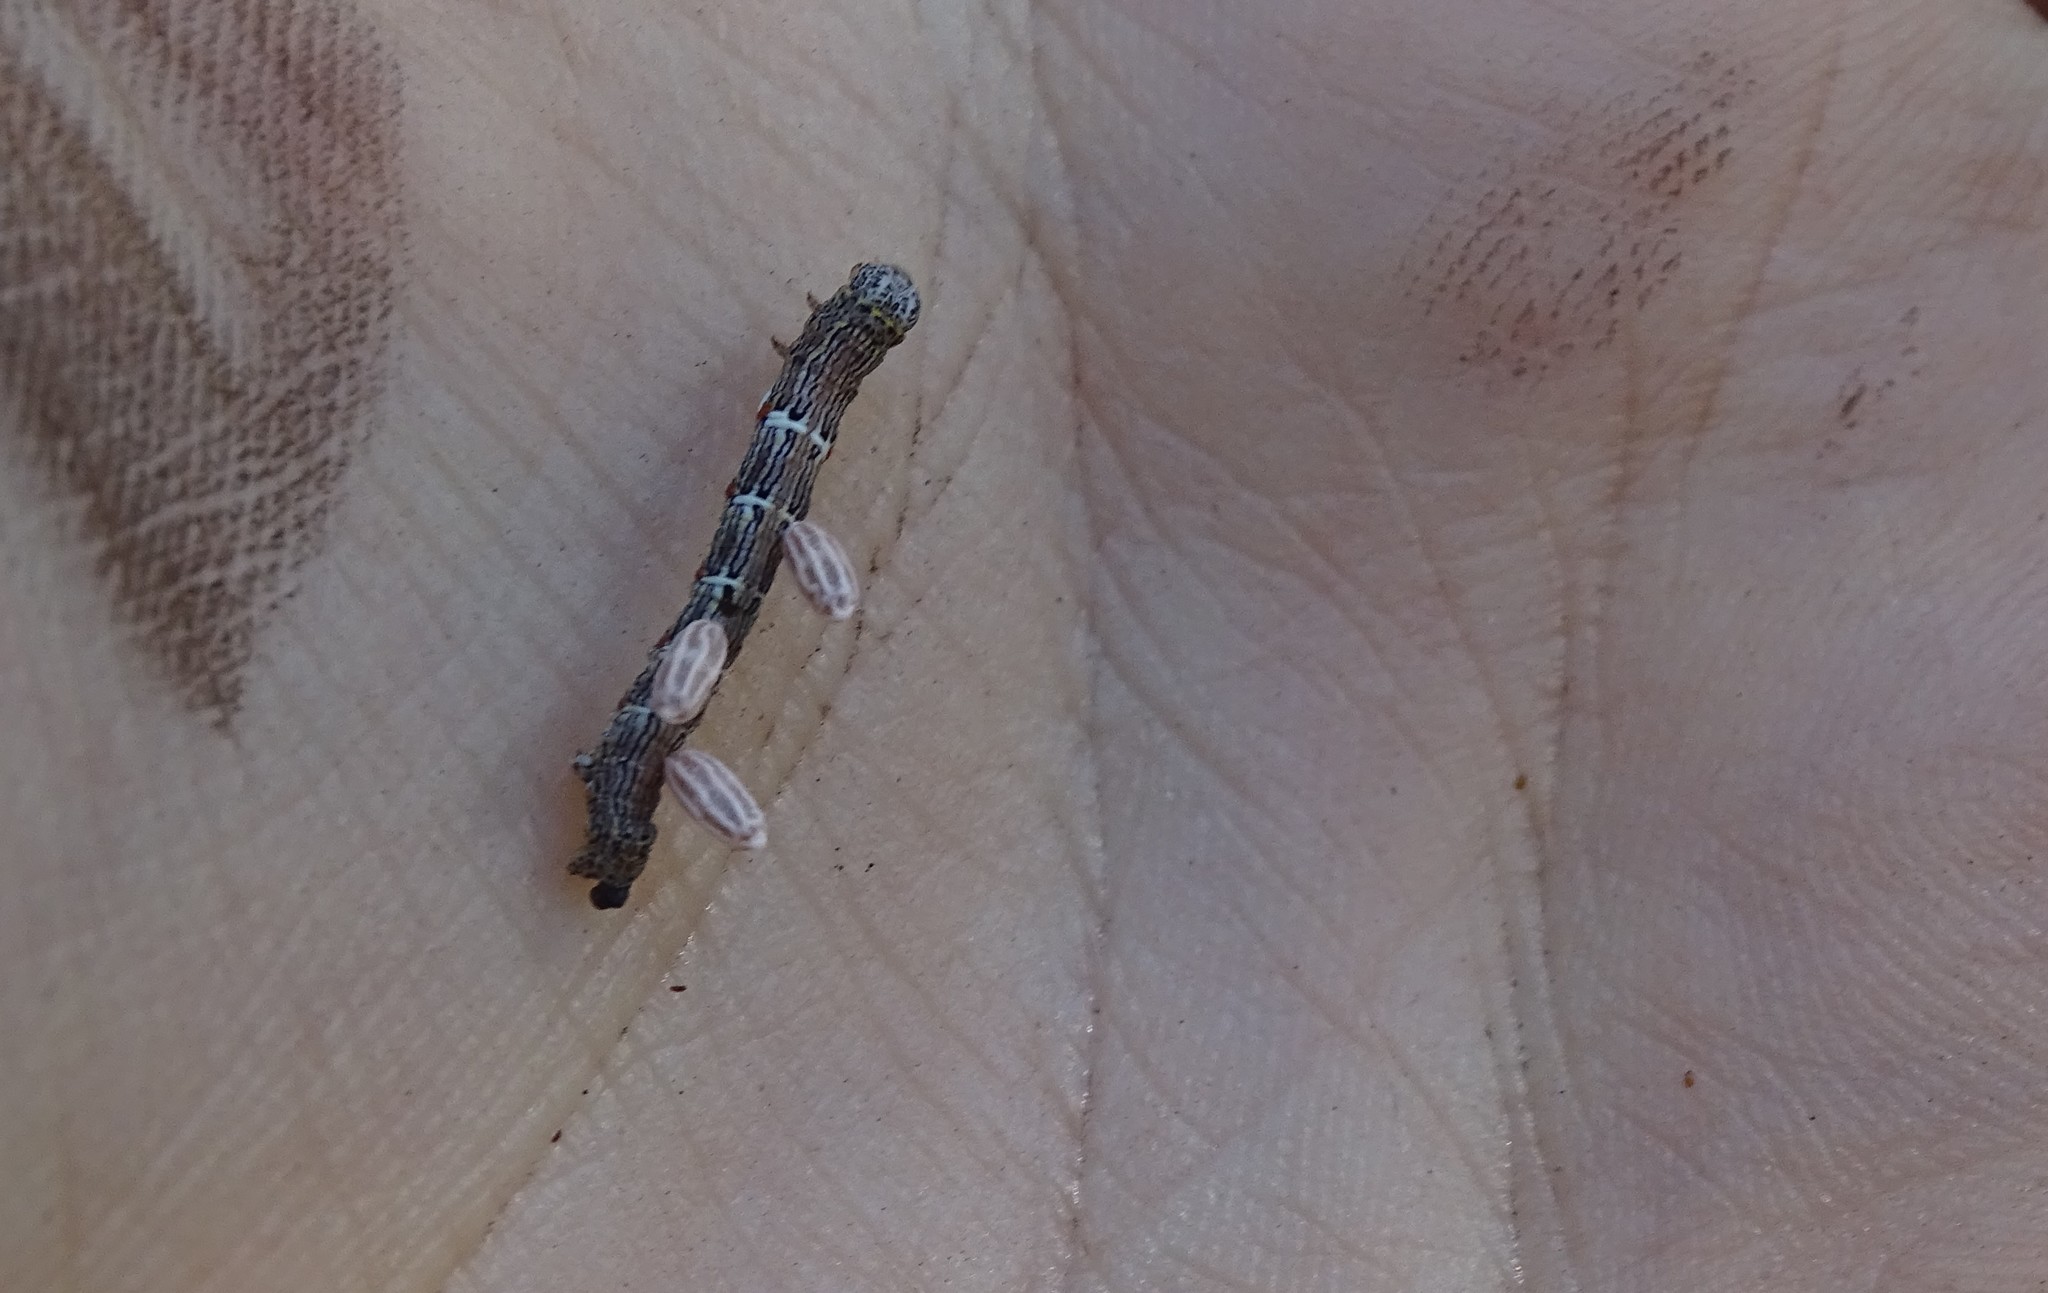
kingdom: Animalia
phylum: Arthropoda
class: Insecta
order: Lepidoptera
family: Geometridae
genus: Lycia
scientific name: Lycia ypsilon
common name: Wooly gray
